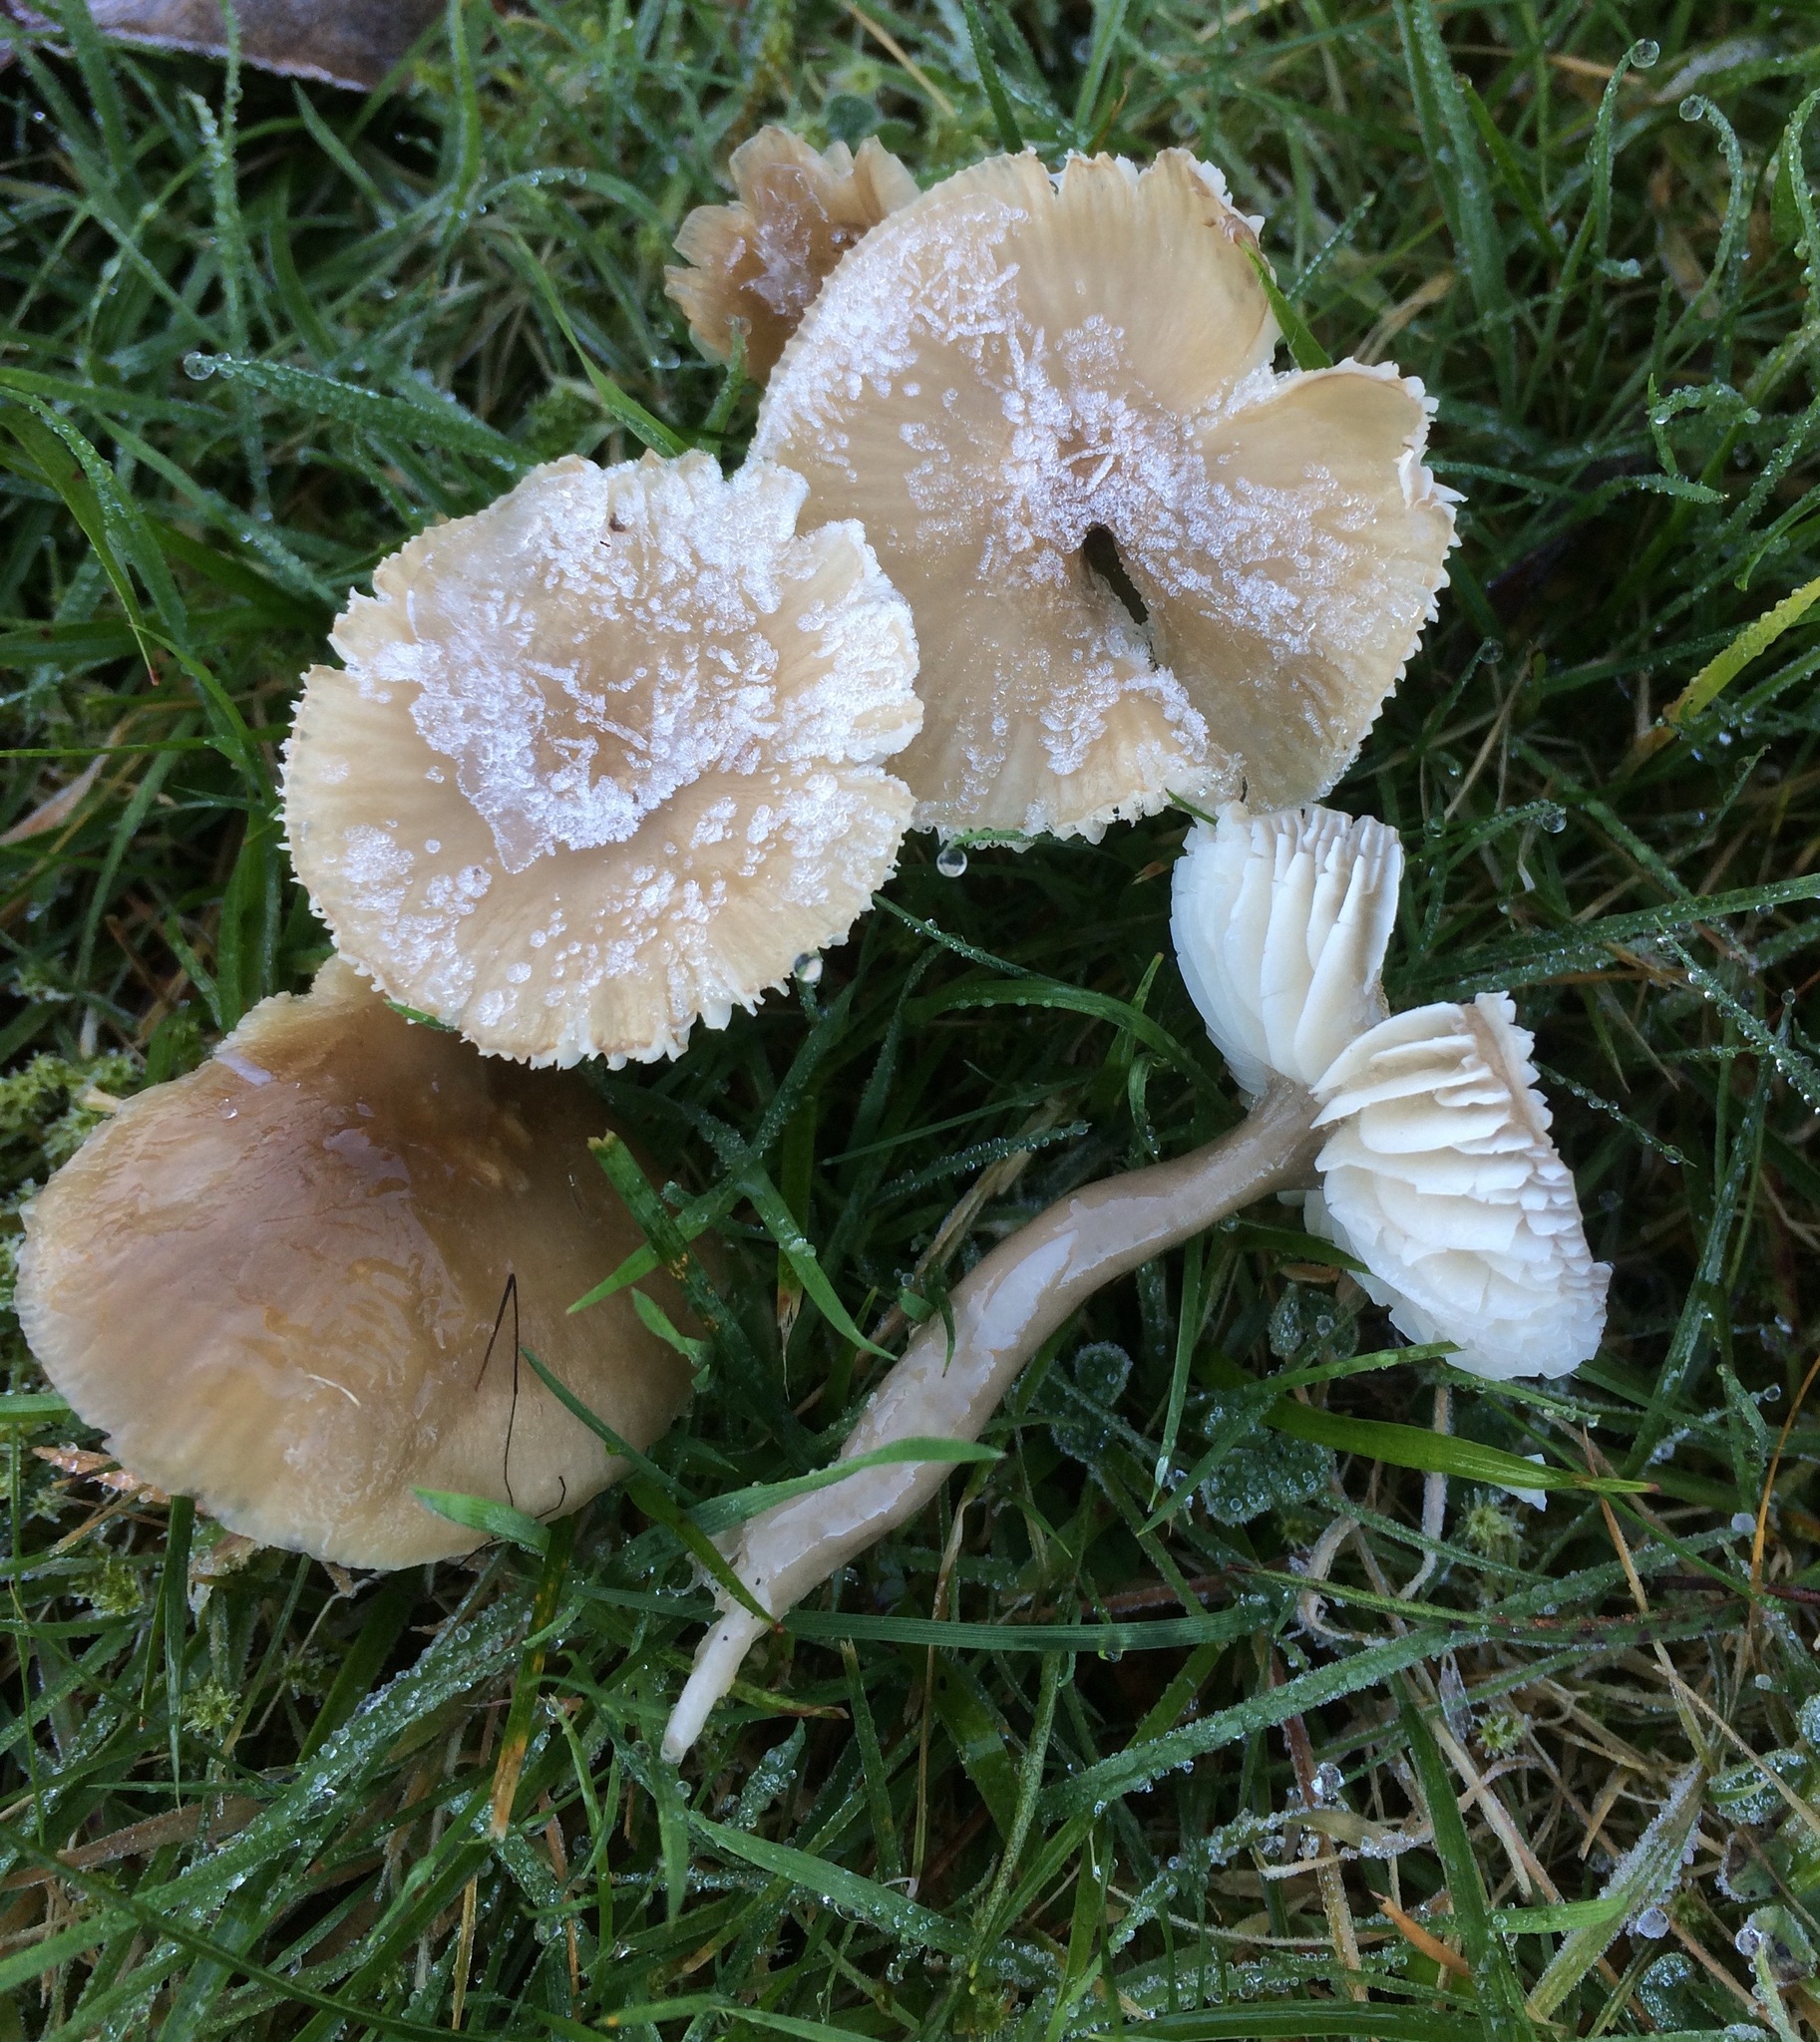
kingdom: Fungi
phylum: Basidiomycota
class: Agaricomycetes
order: Agaricales
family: Hygrophoraceae
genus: Gliophorus
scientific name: Gliophorus irrigatus
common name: Slimy waxcap
